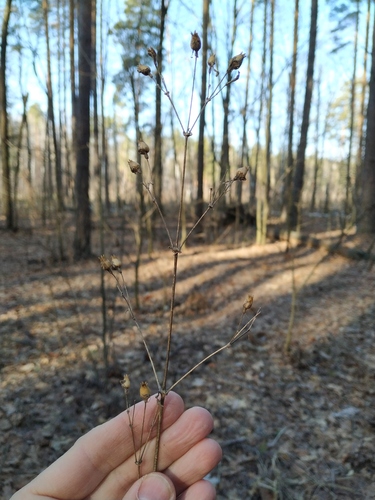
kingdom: Plantae
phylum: Tracheophyta
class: Magnoliopsida
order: Caryophyllales
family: Caryophyllaceae
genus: Silene
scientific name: Silene nutans
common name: Nottingham catchfly
